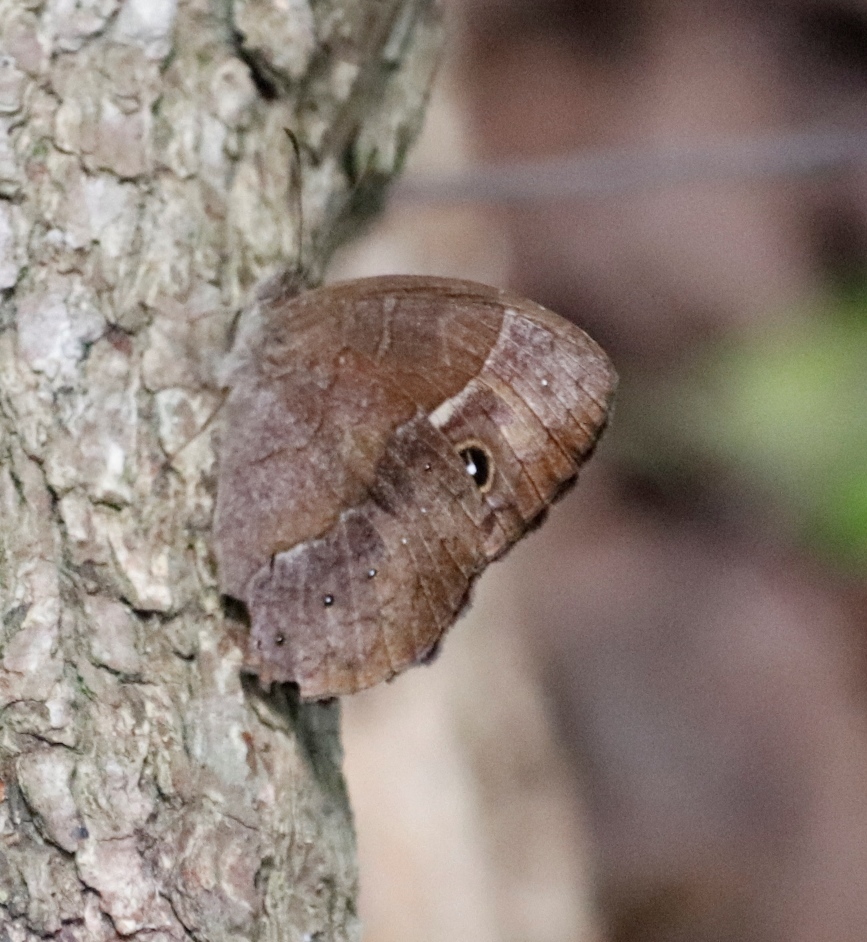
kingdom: Animalia
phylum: Arthropoda
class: Insecta
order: Lepidoptera
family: Nymphalidae
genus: Mycalesis
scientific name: Mycalesis rhacotis
